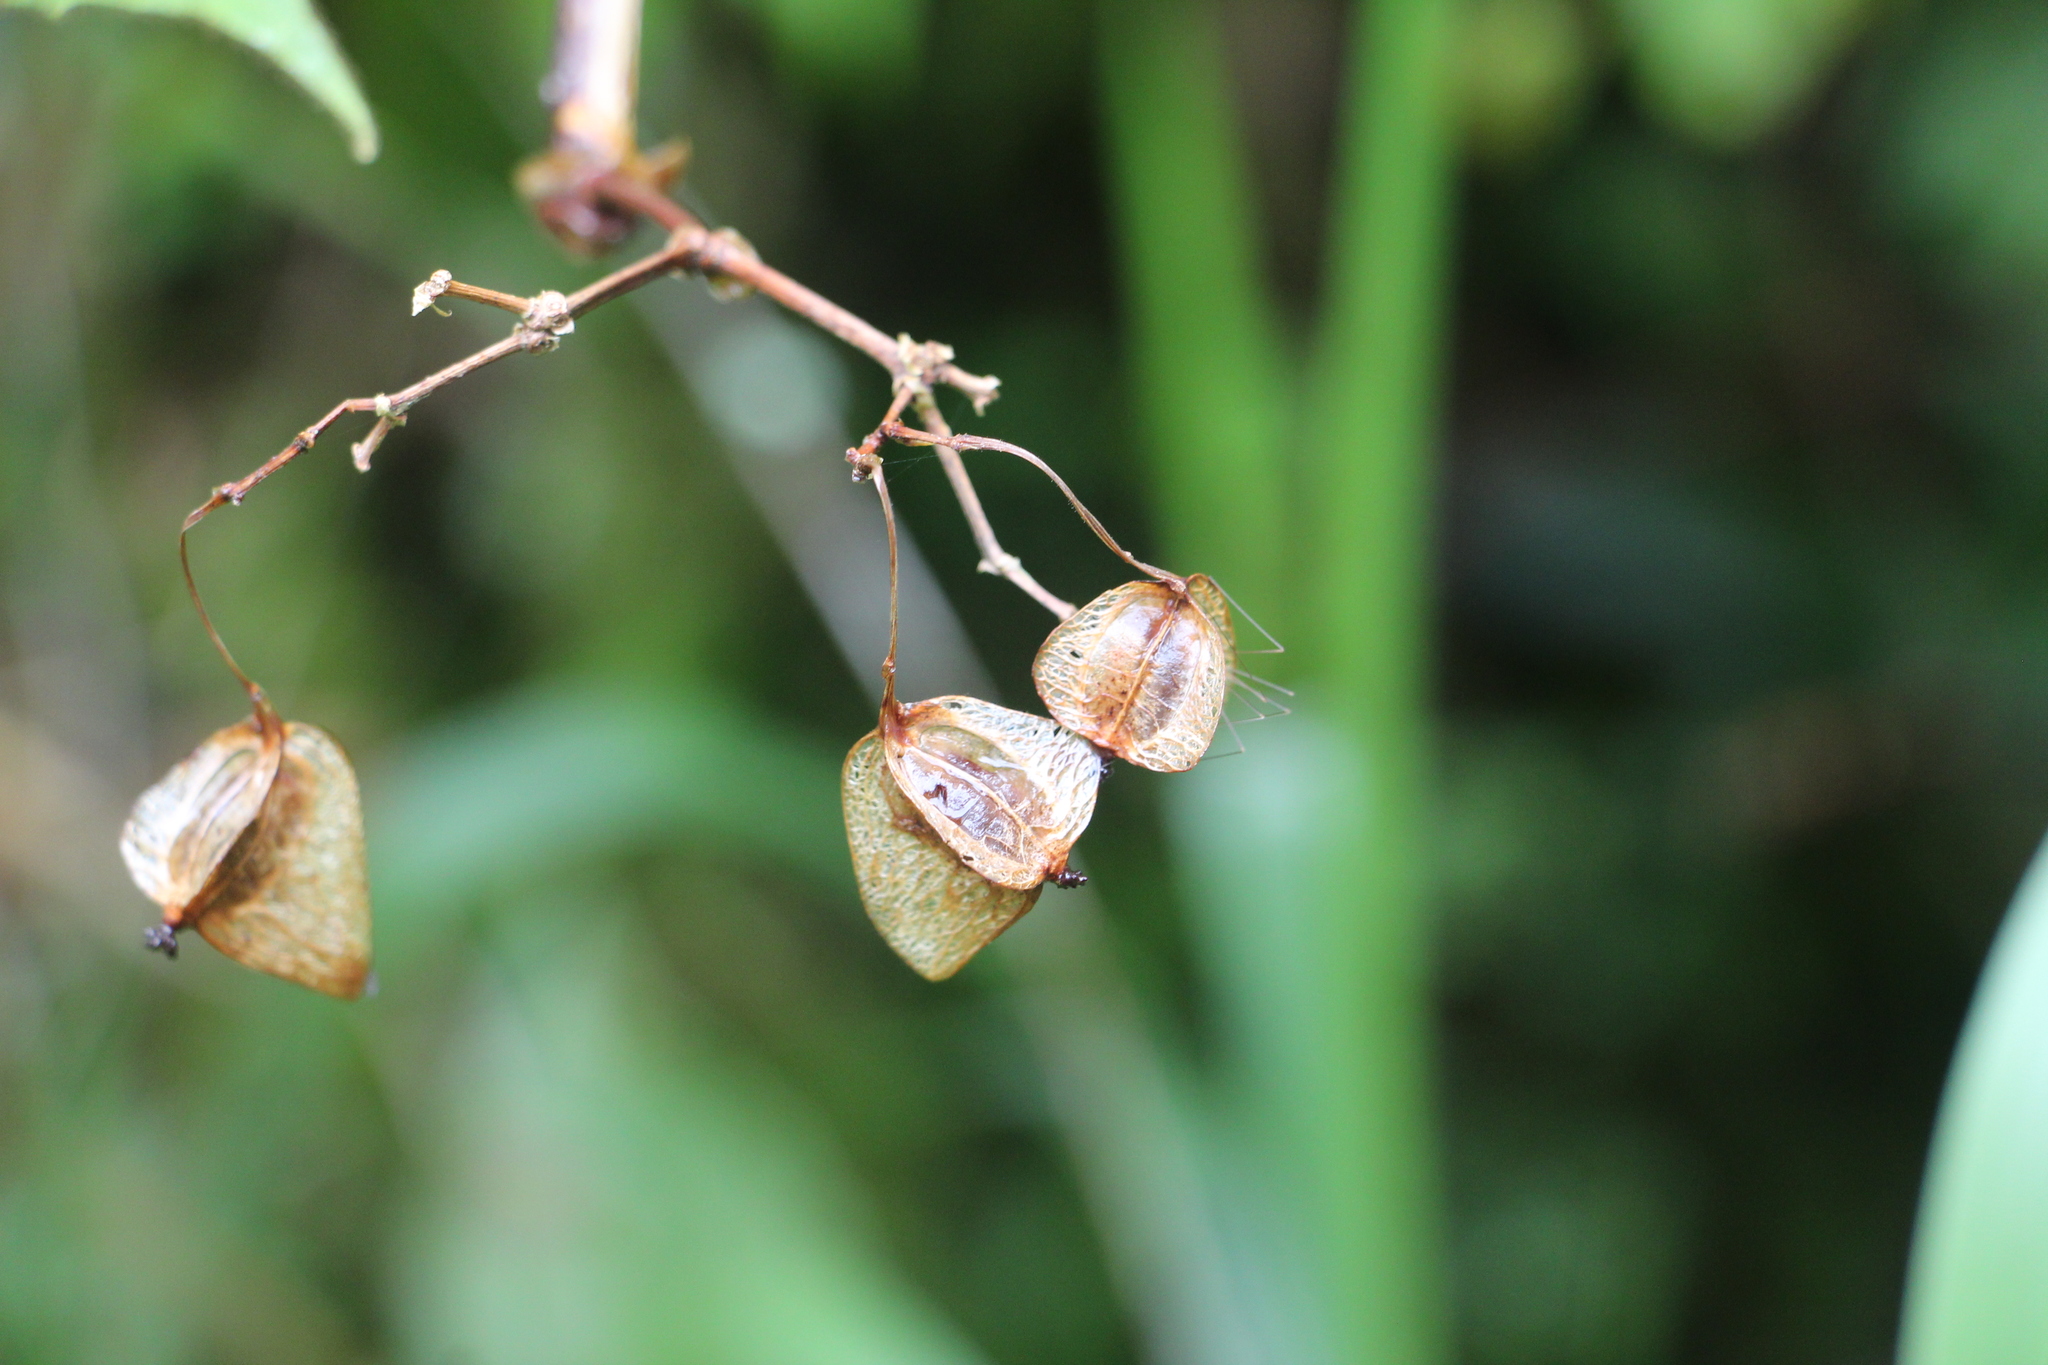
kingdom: Plantae
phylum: Tracheophyta
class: Magnoliopsida
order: Cucurbitales
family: Begoniaceae
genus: Begonia
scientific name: Begonia meridensis
